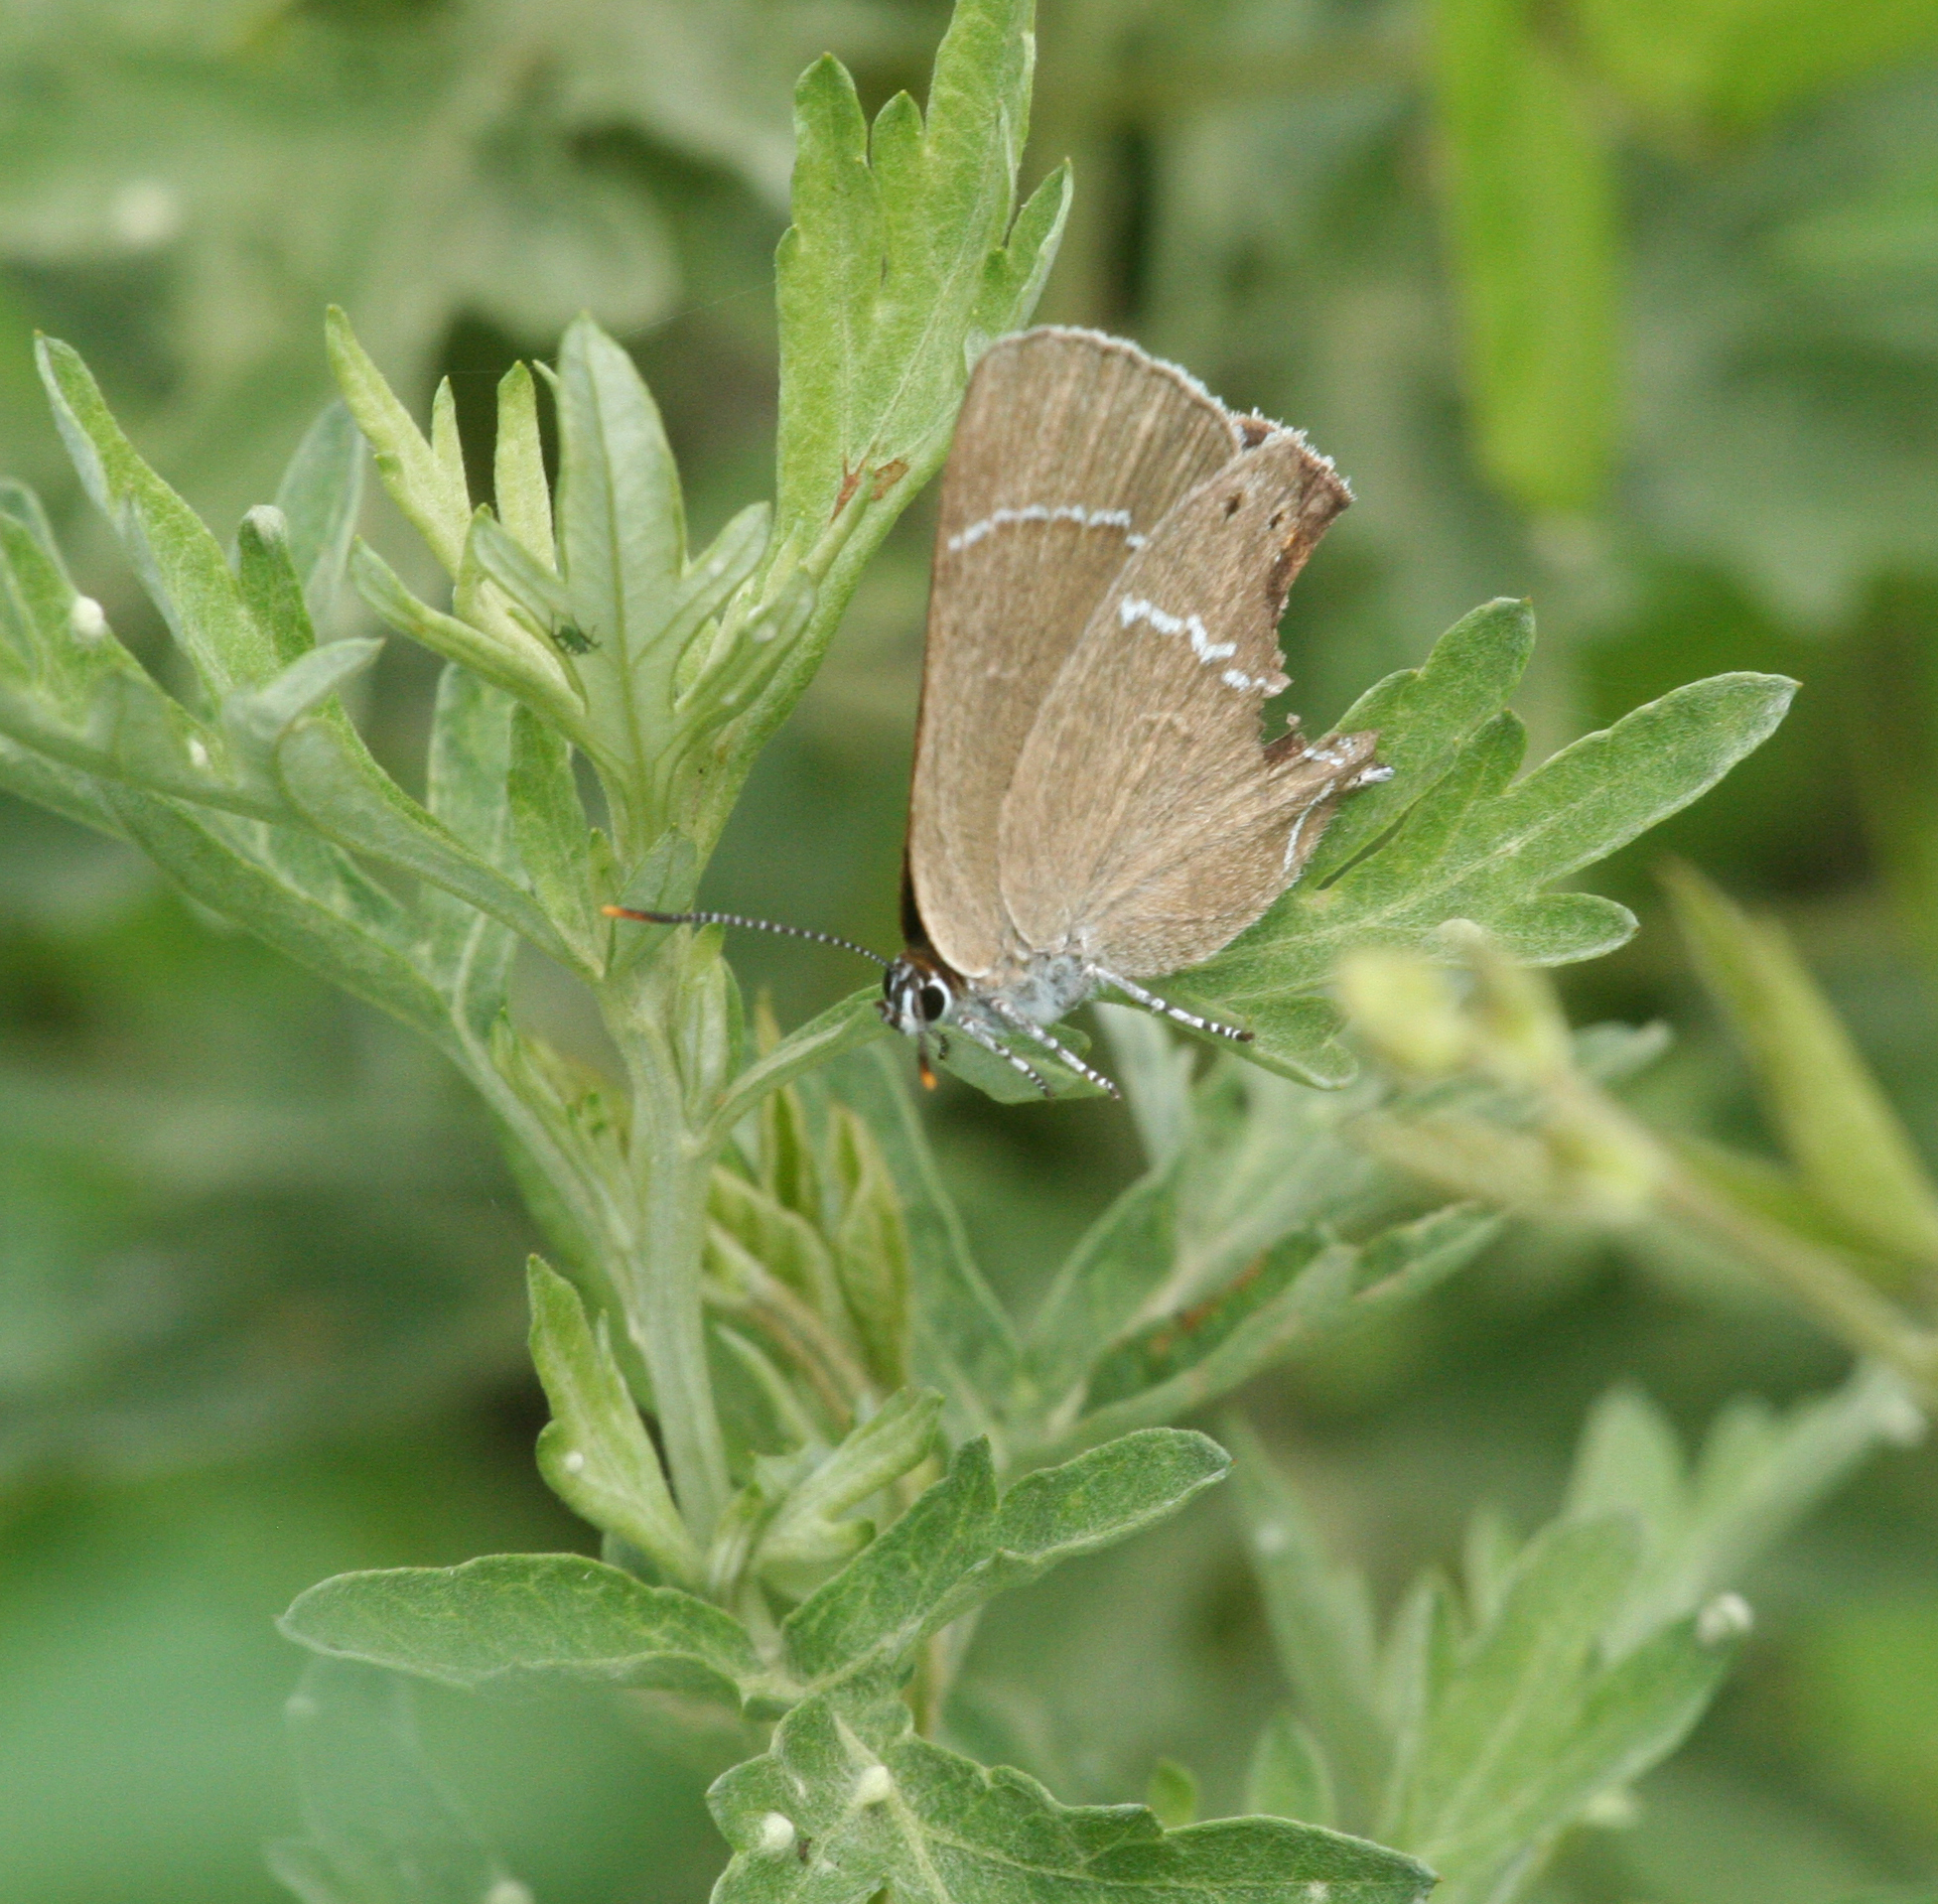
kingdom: Animalia
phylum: Arthropoda
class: Insecta
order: Lepidoptera
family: Lycaenidae
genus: Satyrium
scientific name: Satyrium
